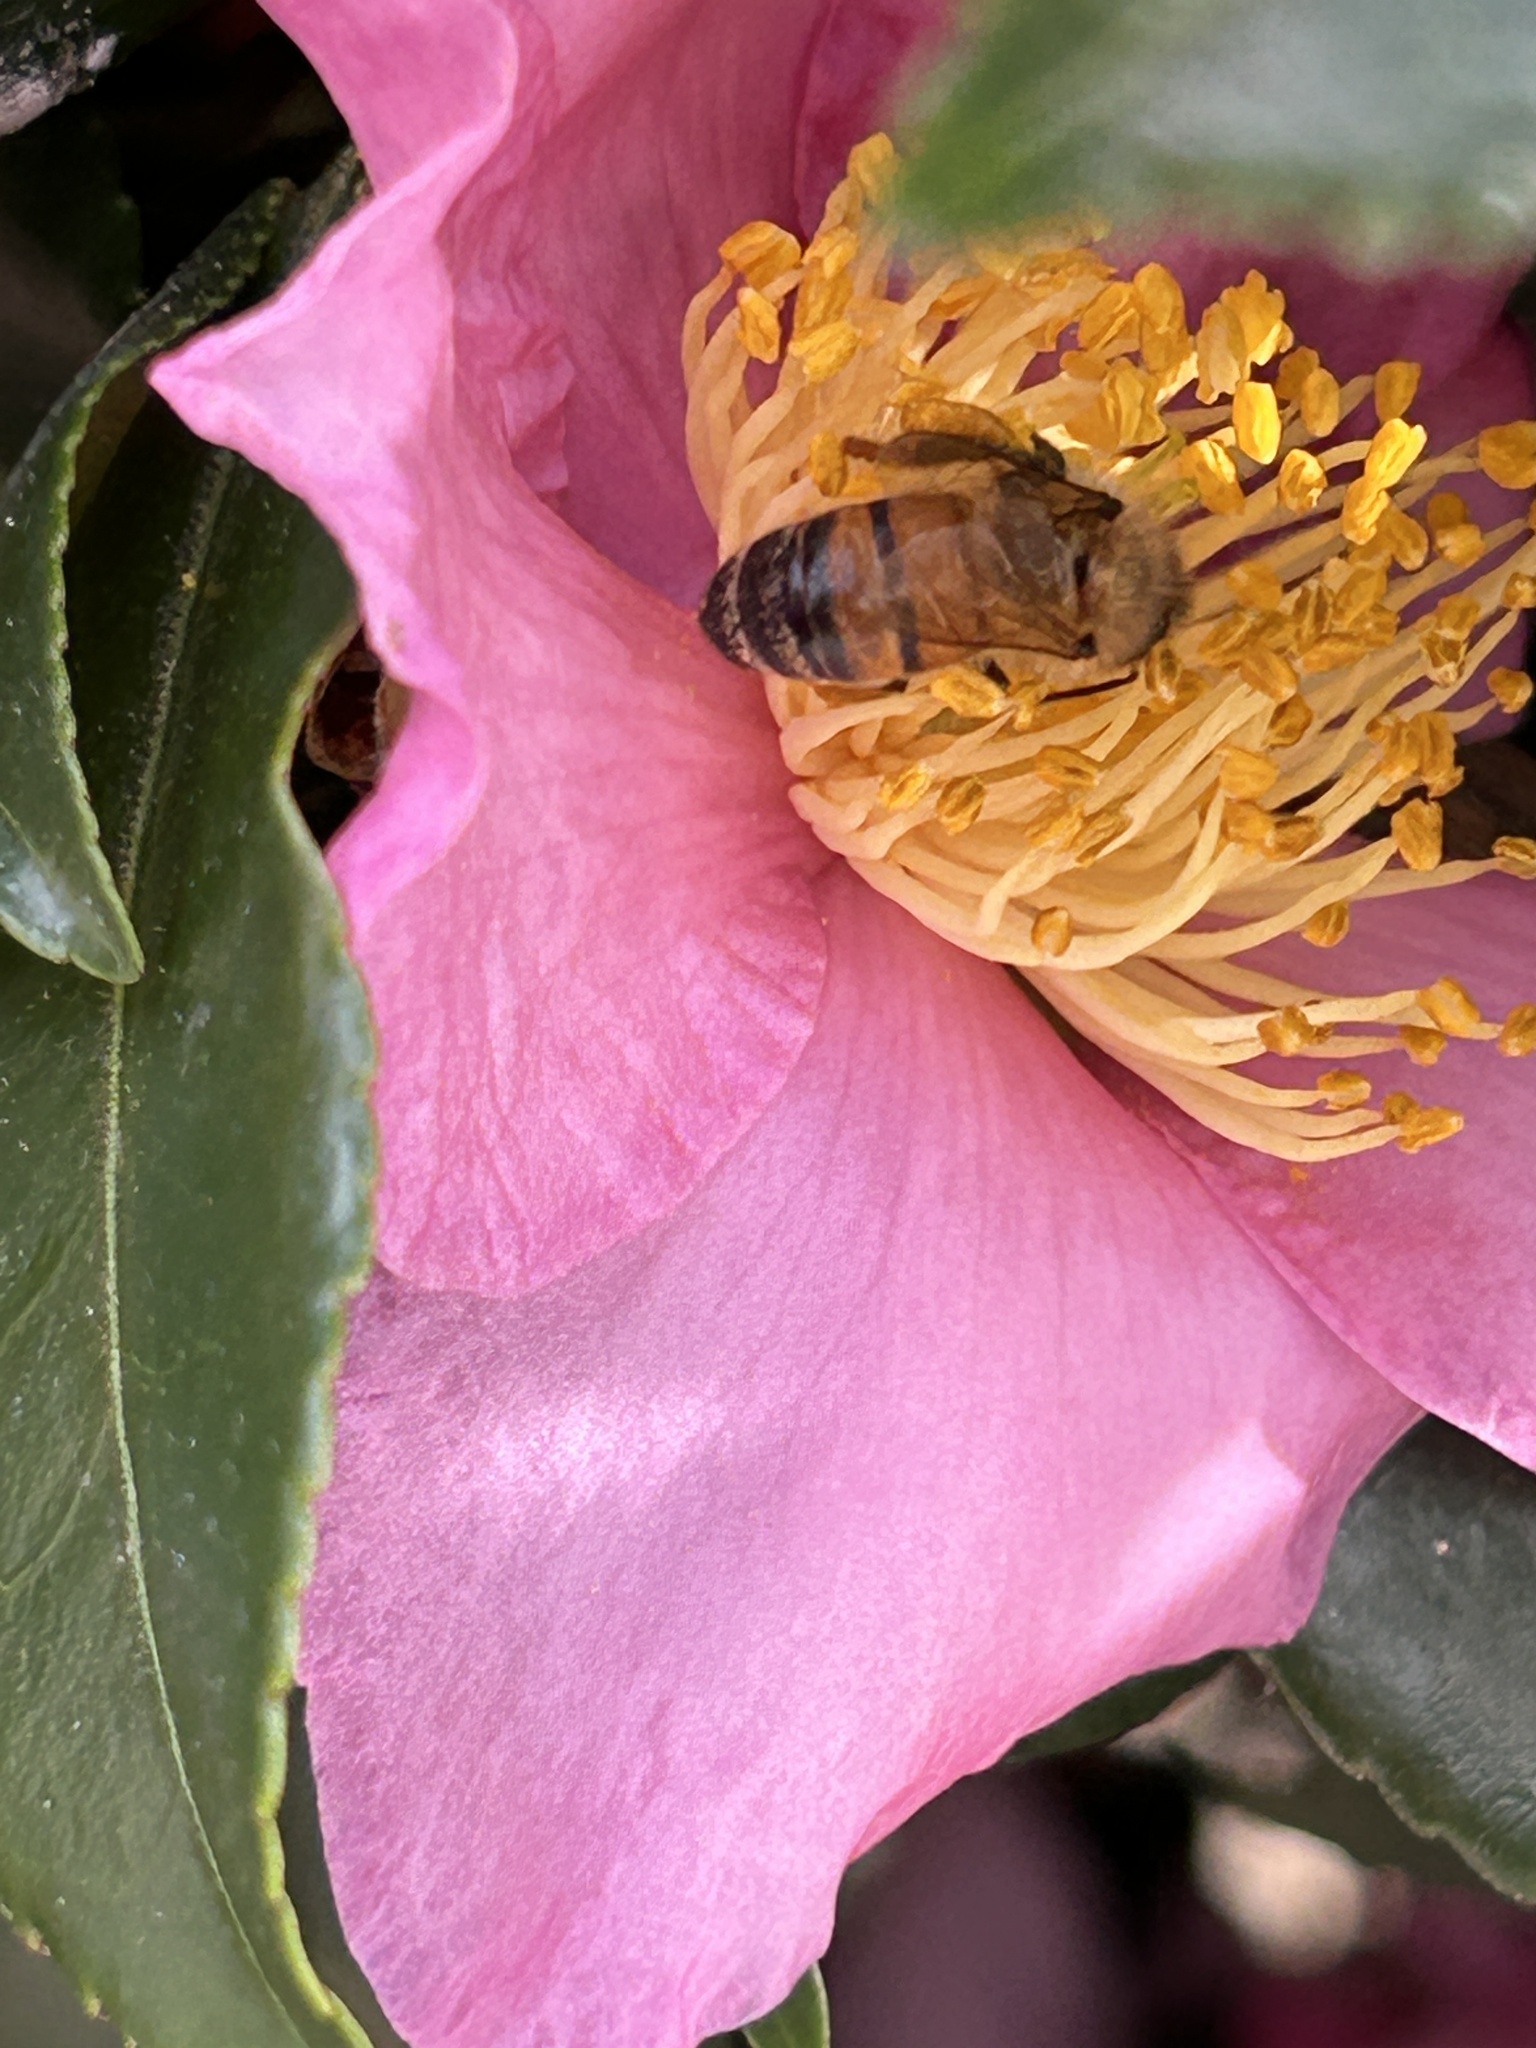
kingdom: Animalia
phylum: Arthropoda
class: Insecta
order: Hymenoptera
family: Apidae
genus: Apis
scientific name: Apis mellifera
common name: Honey bee
